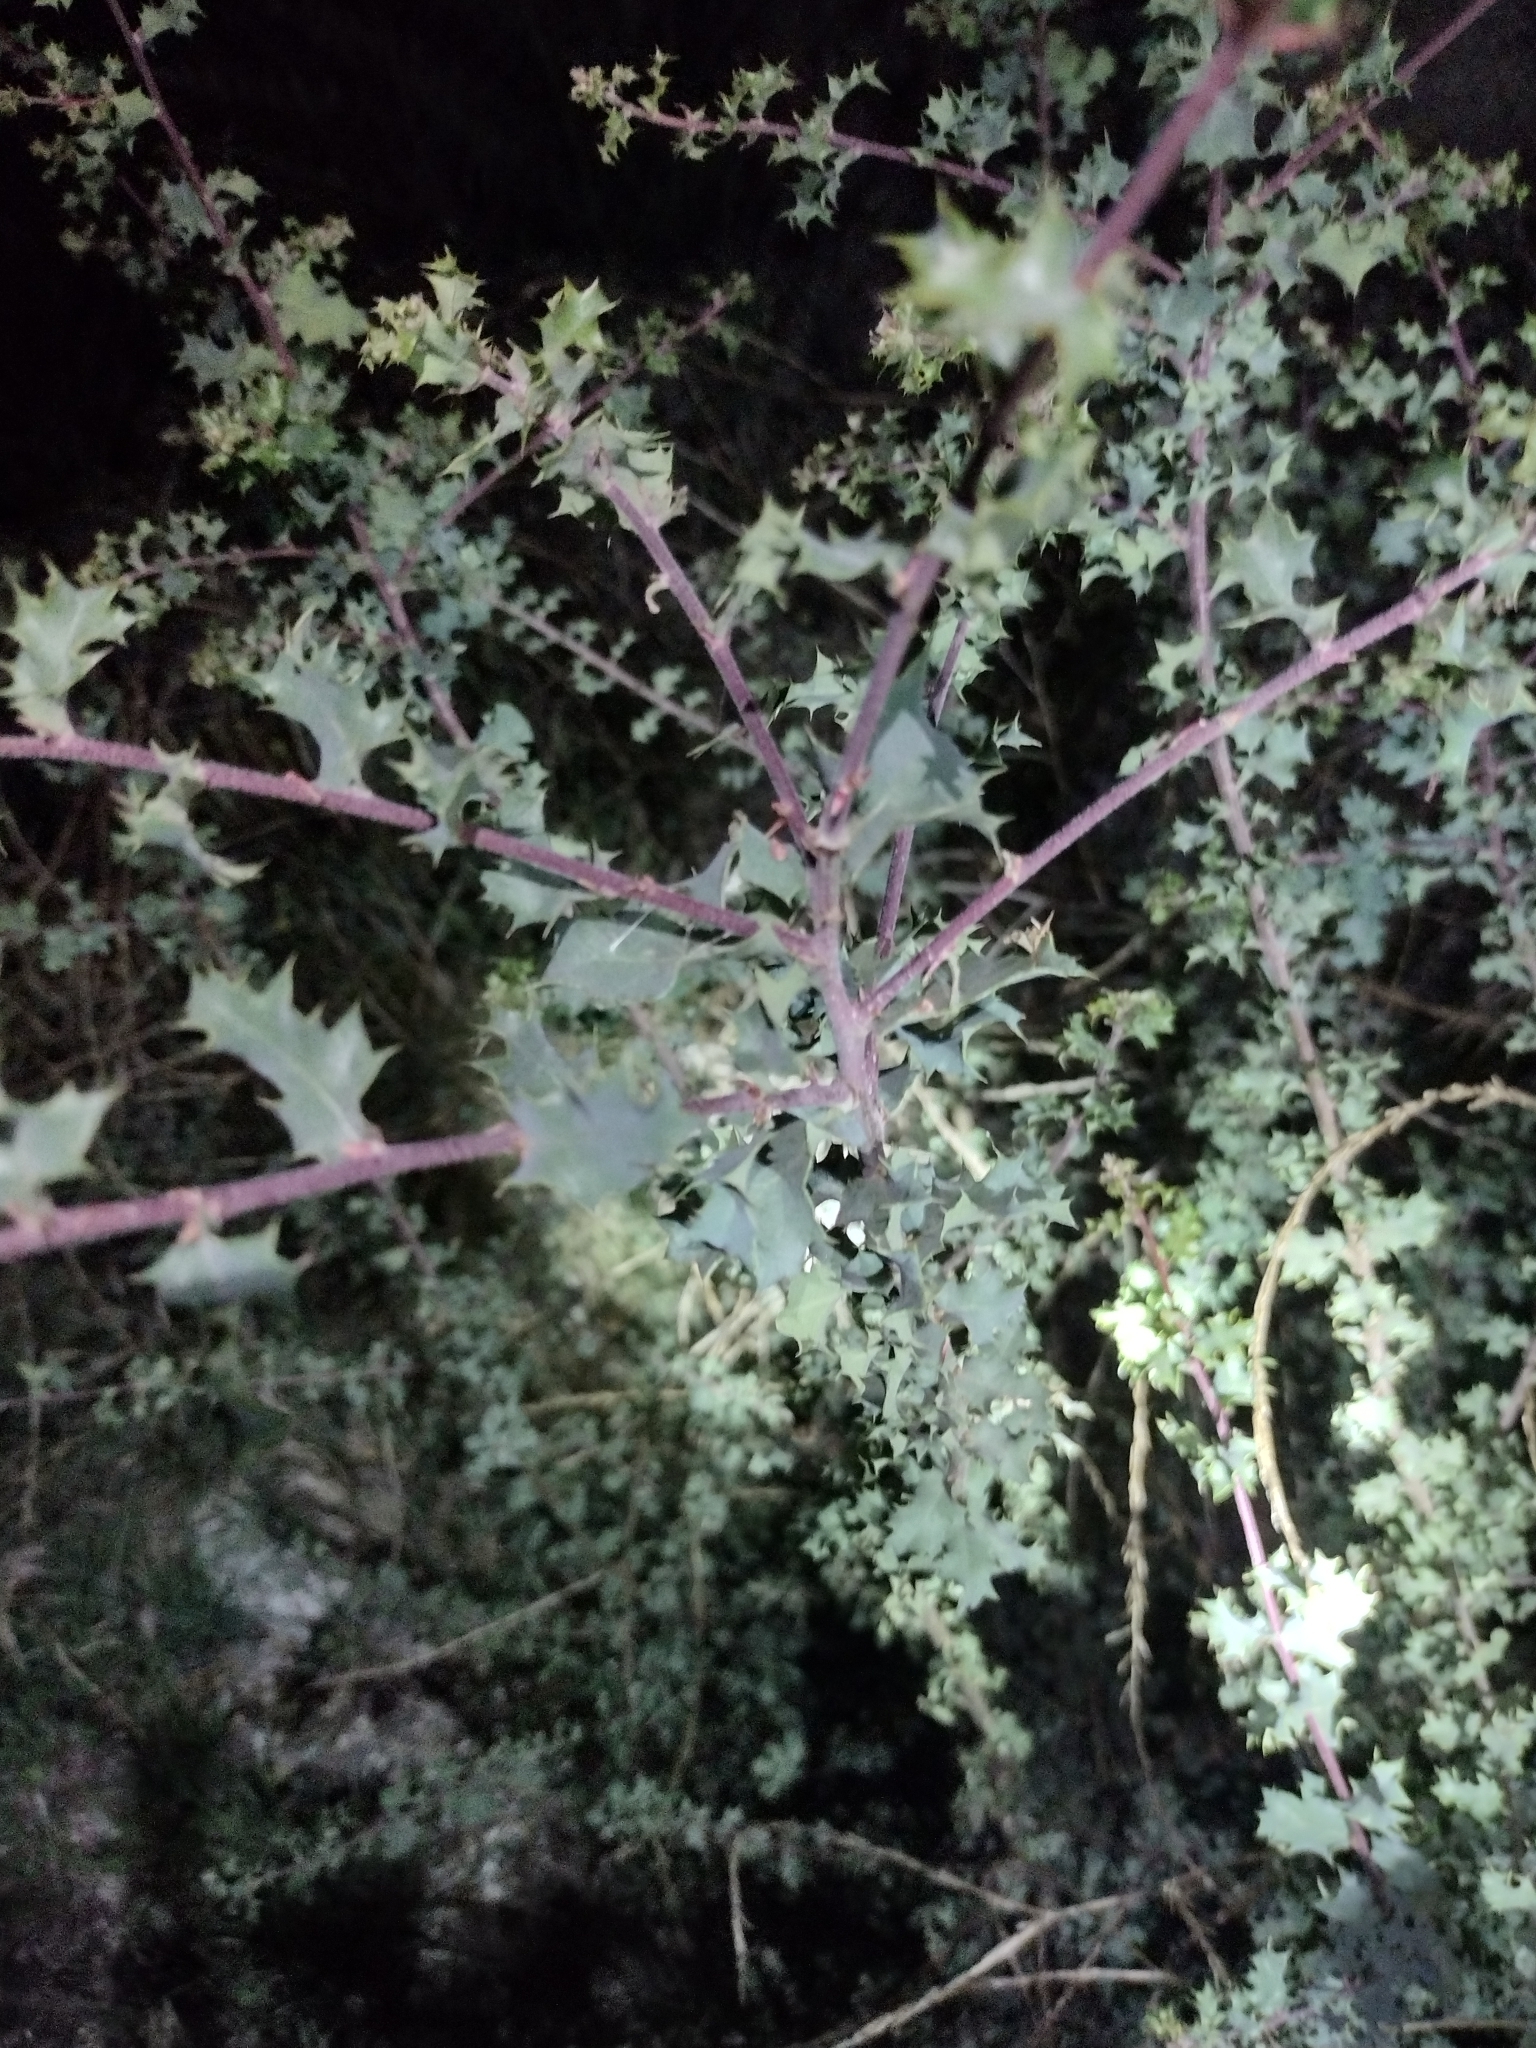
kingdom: Plantae
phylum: Tracheophyta
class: Magnoliopsida
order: Fagales
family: Fagaceae
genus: Quercus
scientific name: Quercus berberidifolia
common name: California scrub oak
